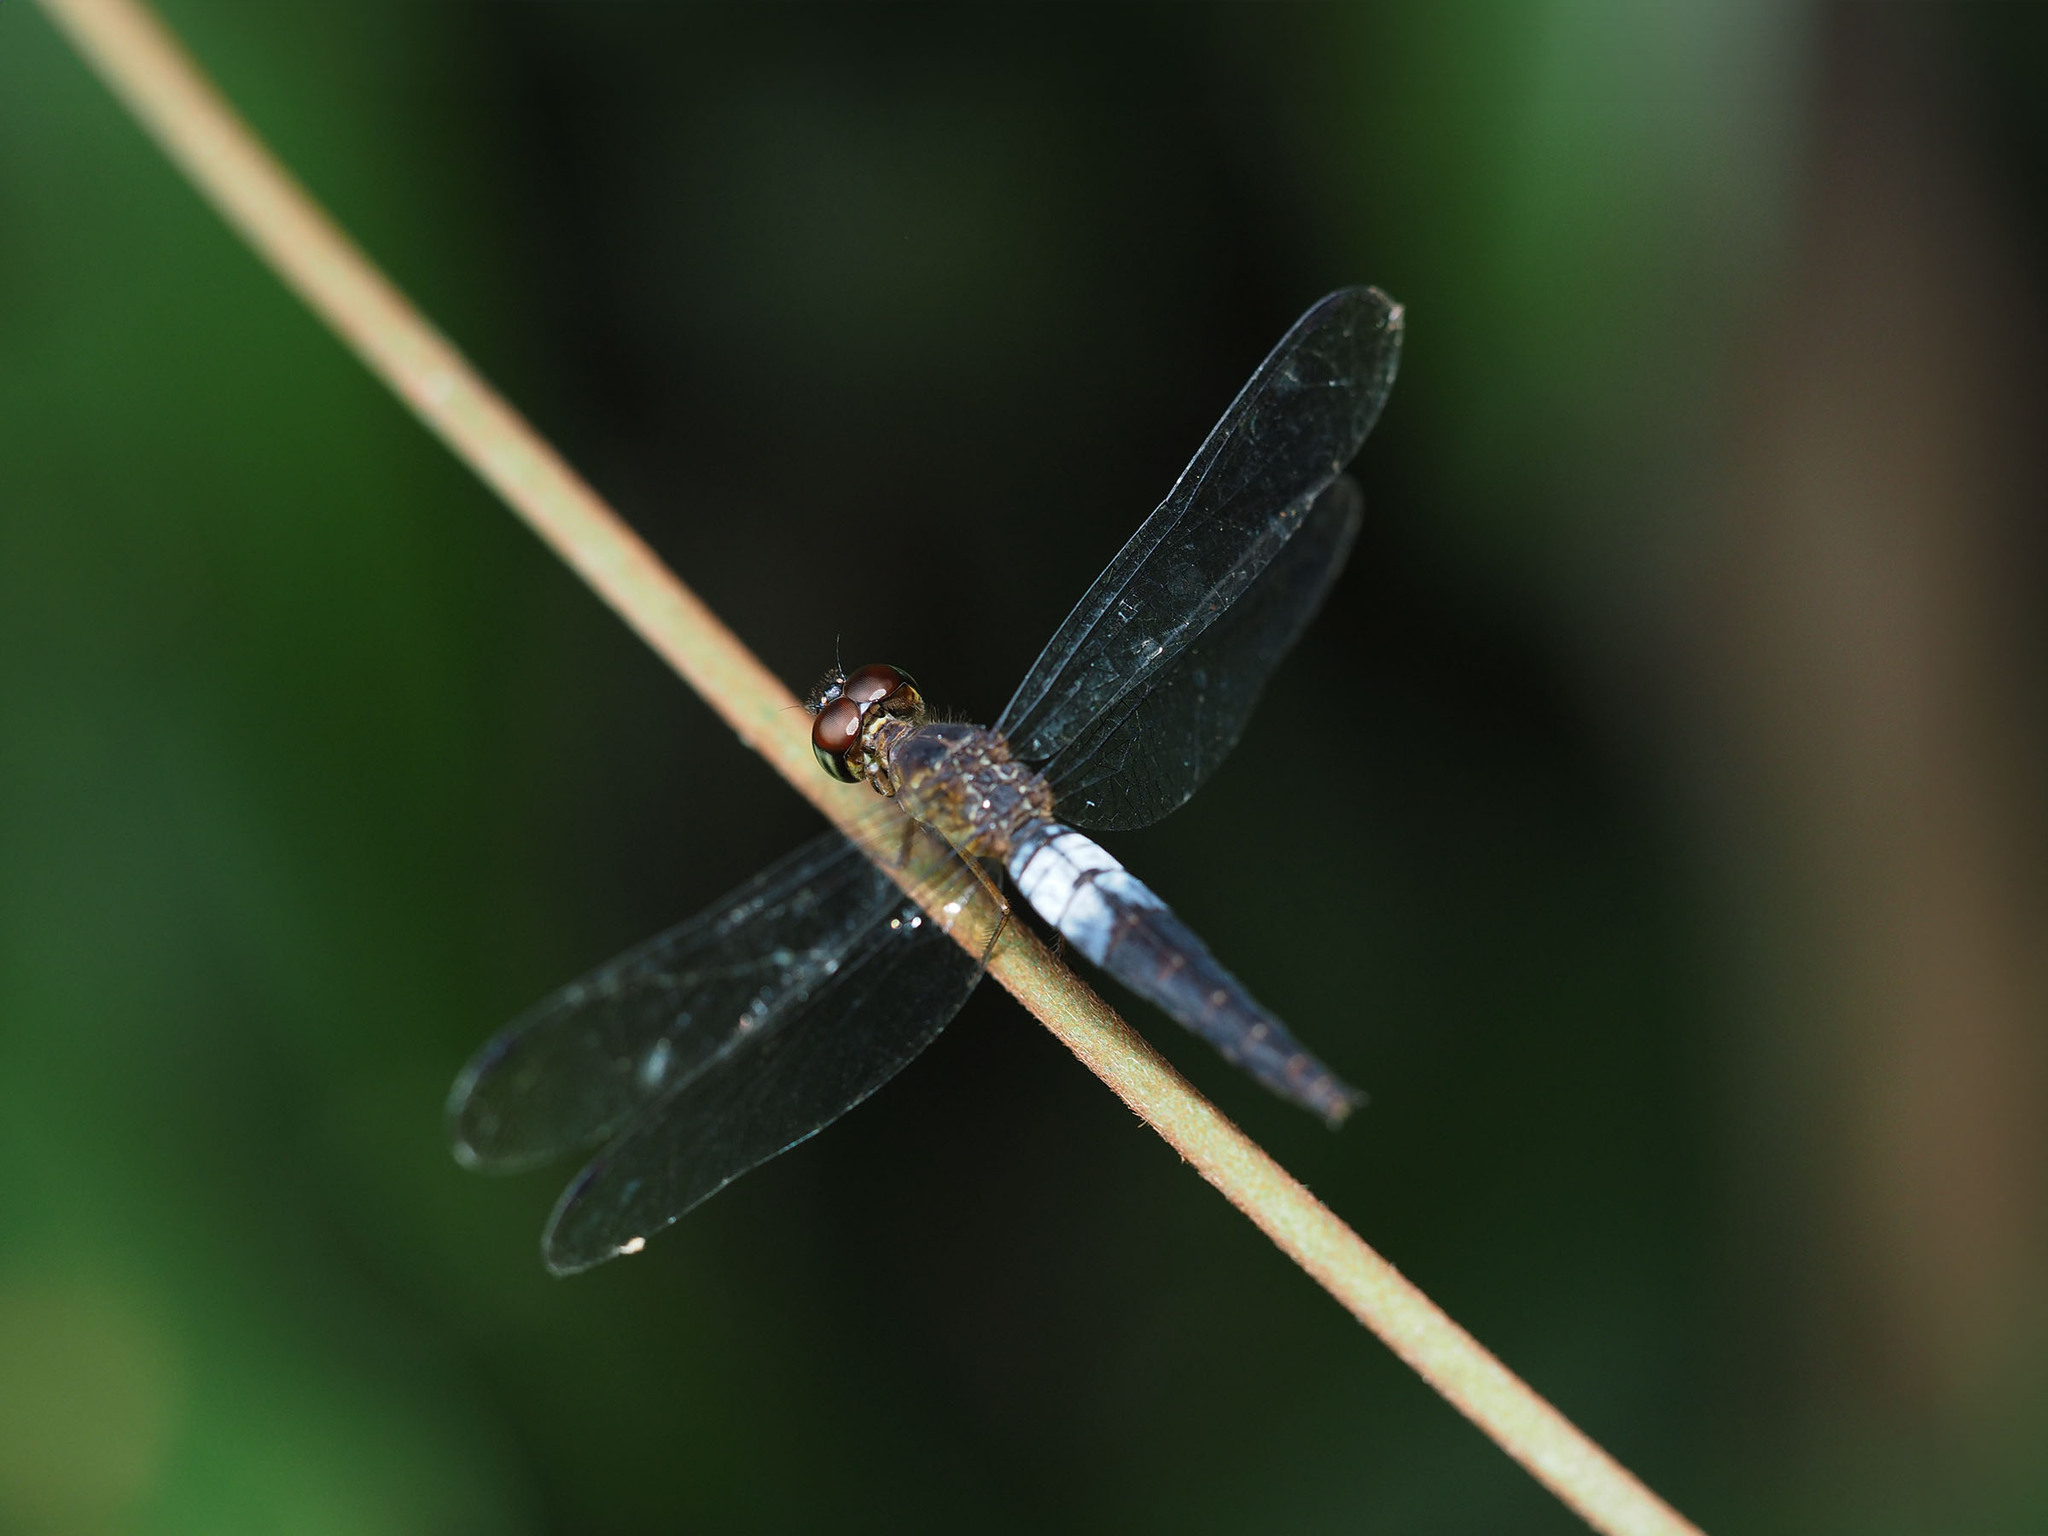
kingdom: Animalia
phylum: Arthropoda
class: Insecta
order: Odonata
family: Libellulidae
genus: Orchithemis
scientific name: Orchithemis pulcherrima
